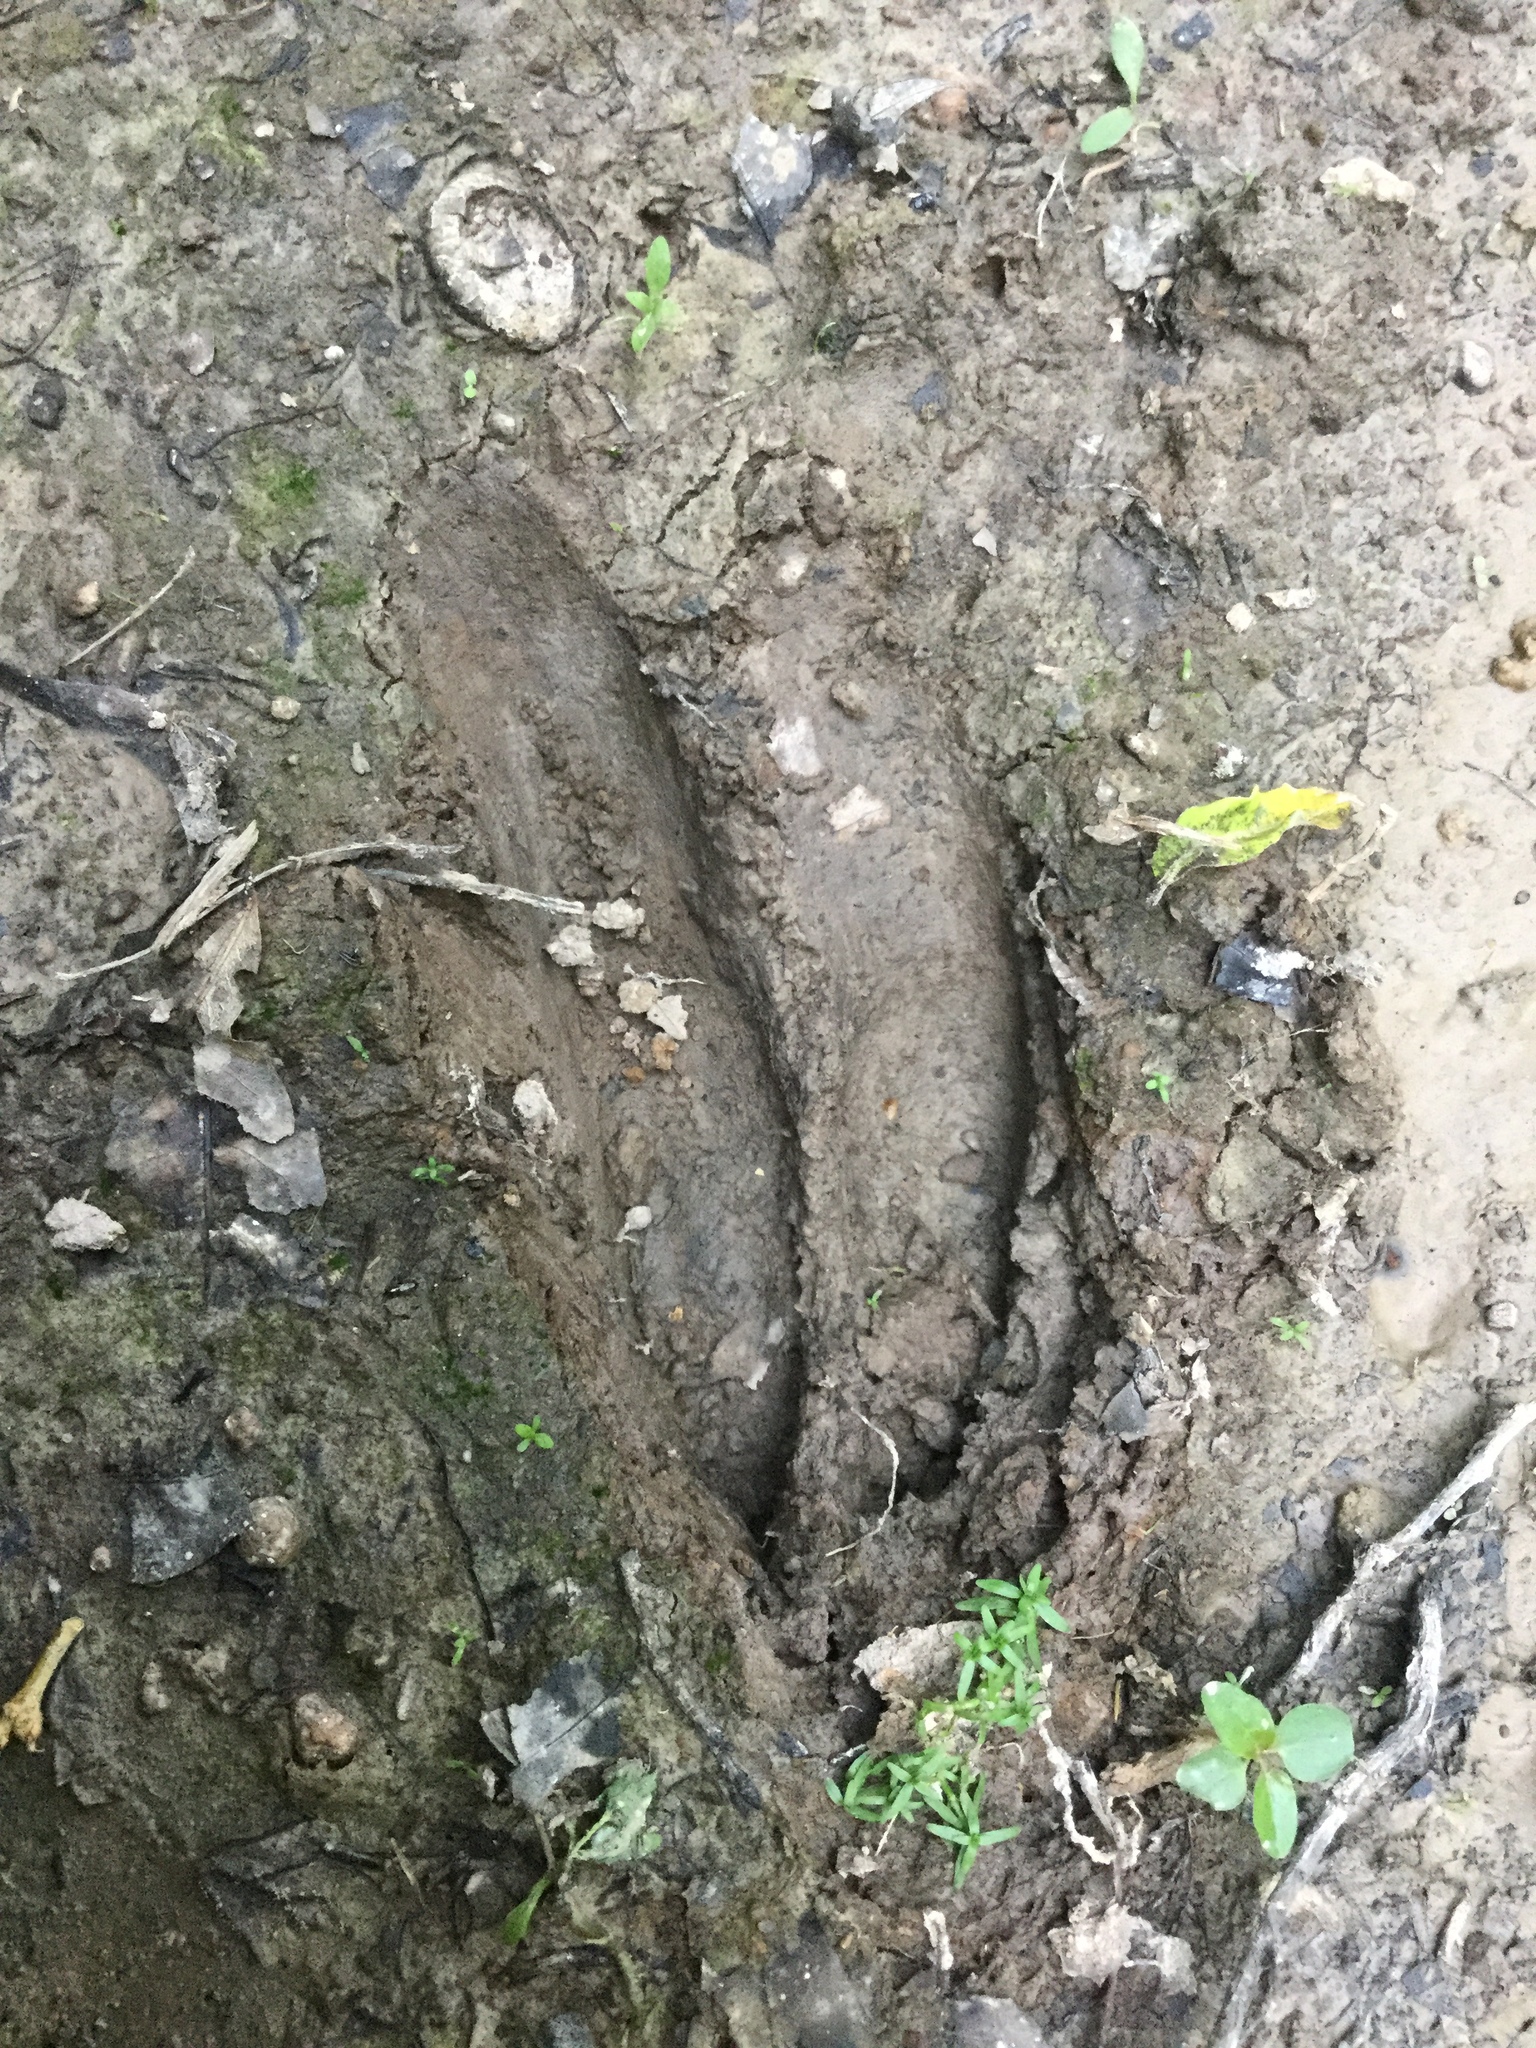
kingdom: Animalia
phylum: Chordata
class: Mammalia
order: Artiodactyla
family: Cervidae
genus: Odocoileus
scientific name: Odocoileus virginianus
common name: White-tailed deer
